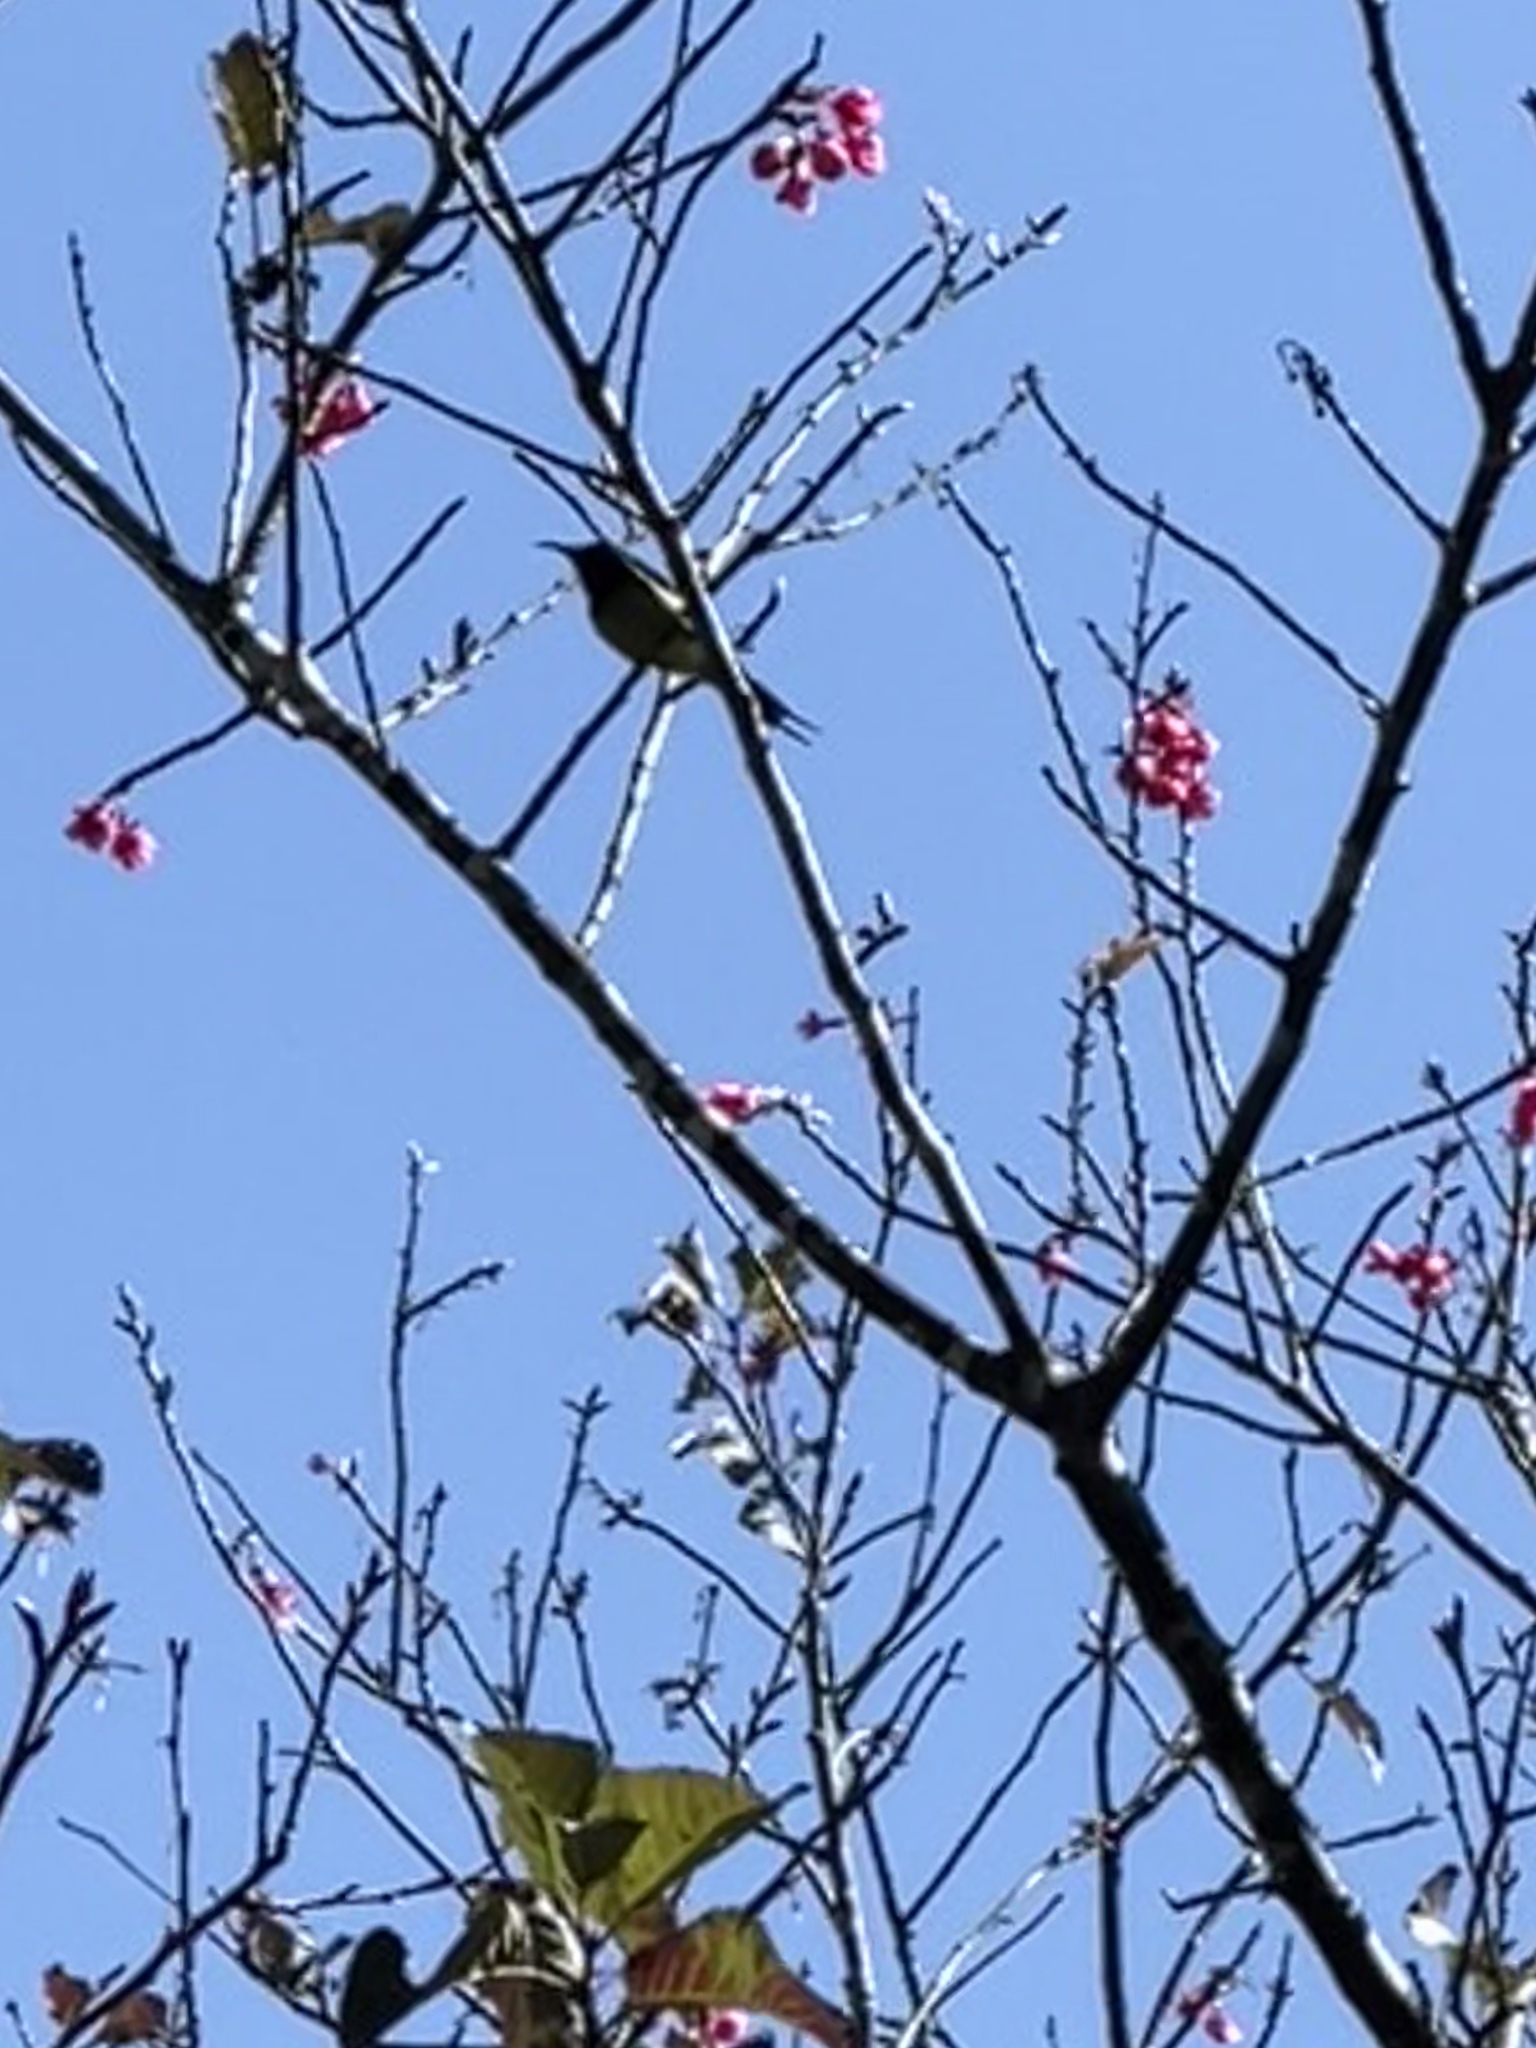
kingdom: Animalia
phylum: Chordata
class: Aves
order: Passeriformes
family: Nectariniidae
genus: Aethopyga
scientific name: Aethopyga christinae
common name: Fork-tailed sunbird
